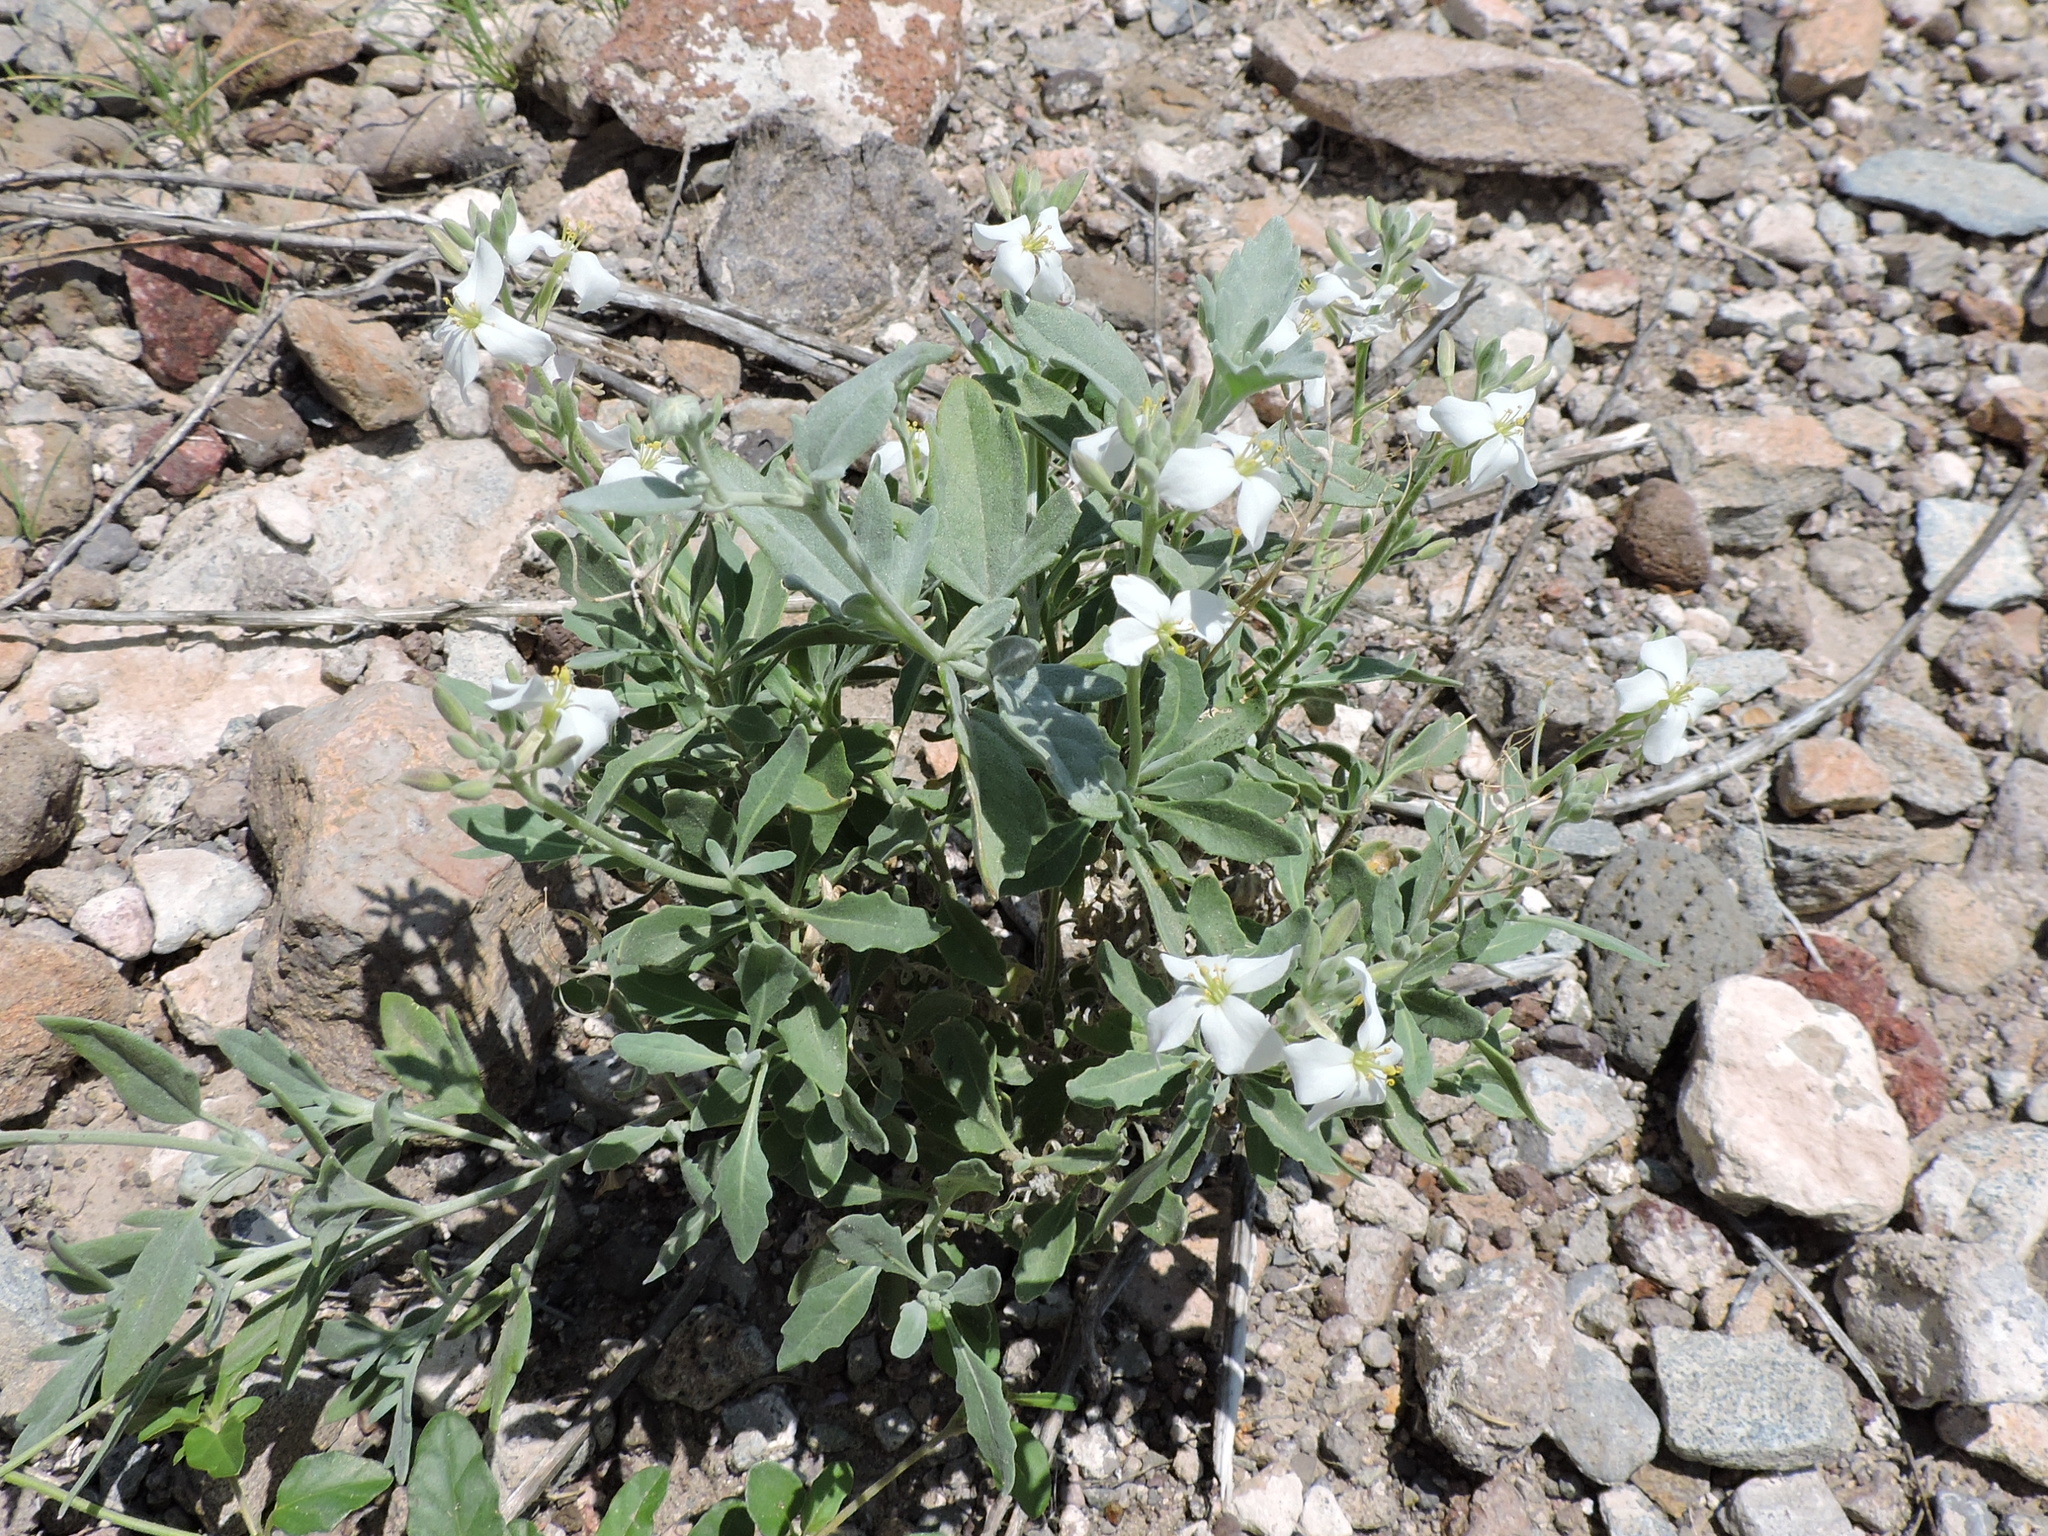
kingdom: Plantae
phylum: Tracheophyta
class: Magnoliopsida
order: Brassicales
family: Brassicaceae
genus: Nerisyrenia
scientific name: Nerisyrenia camporum
